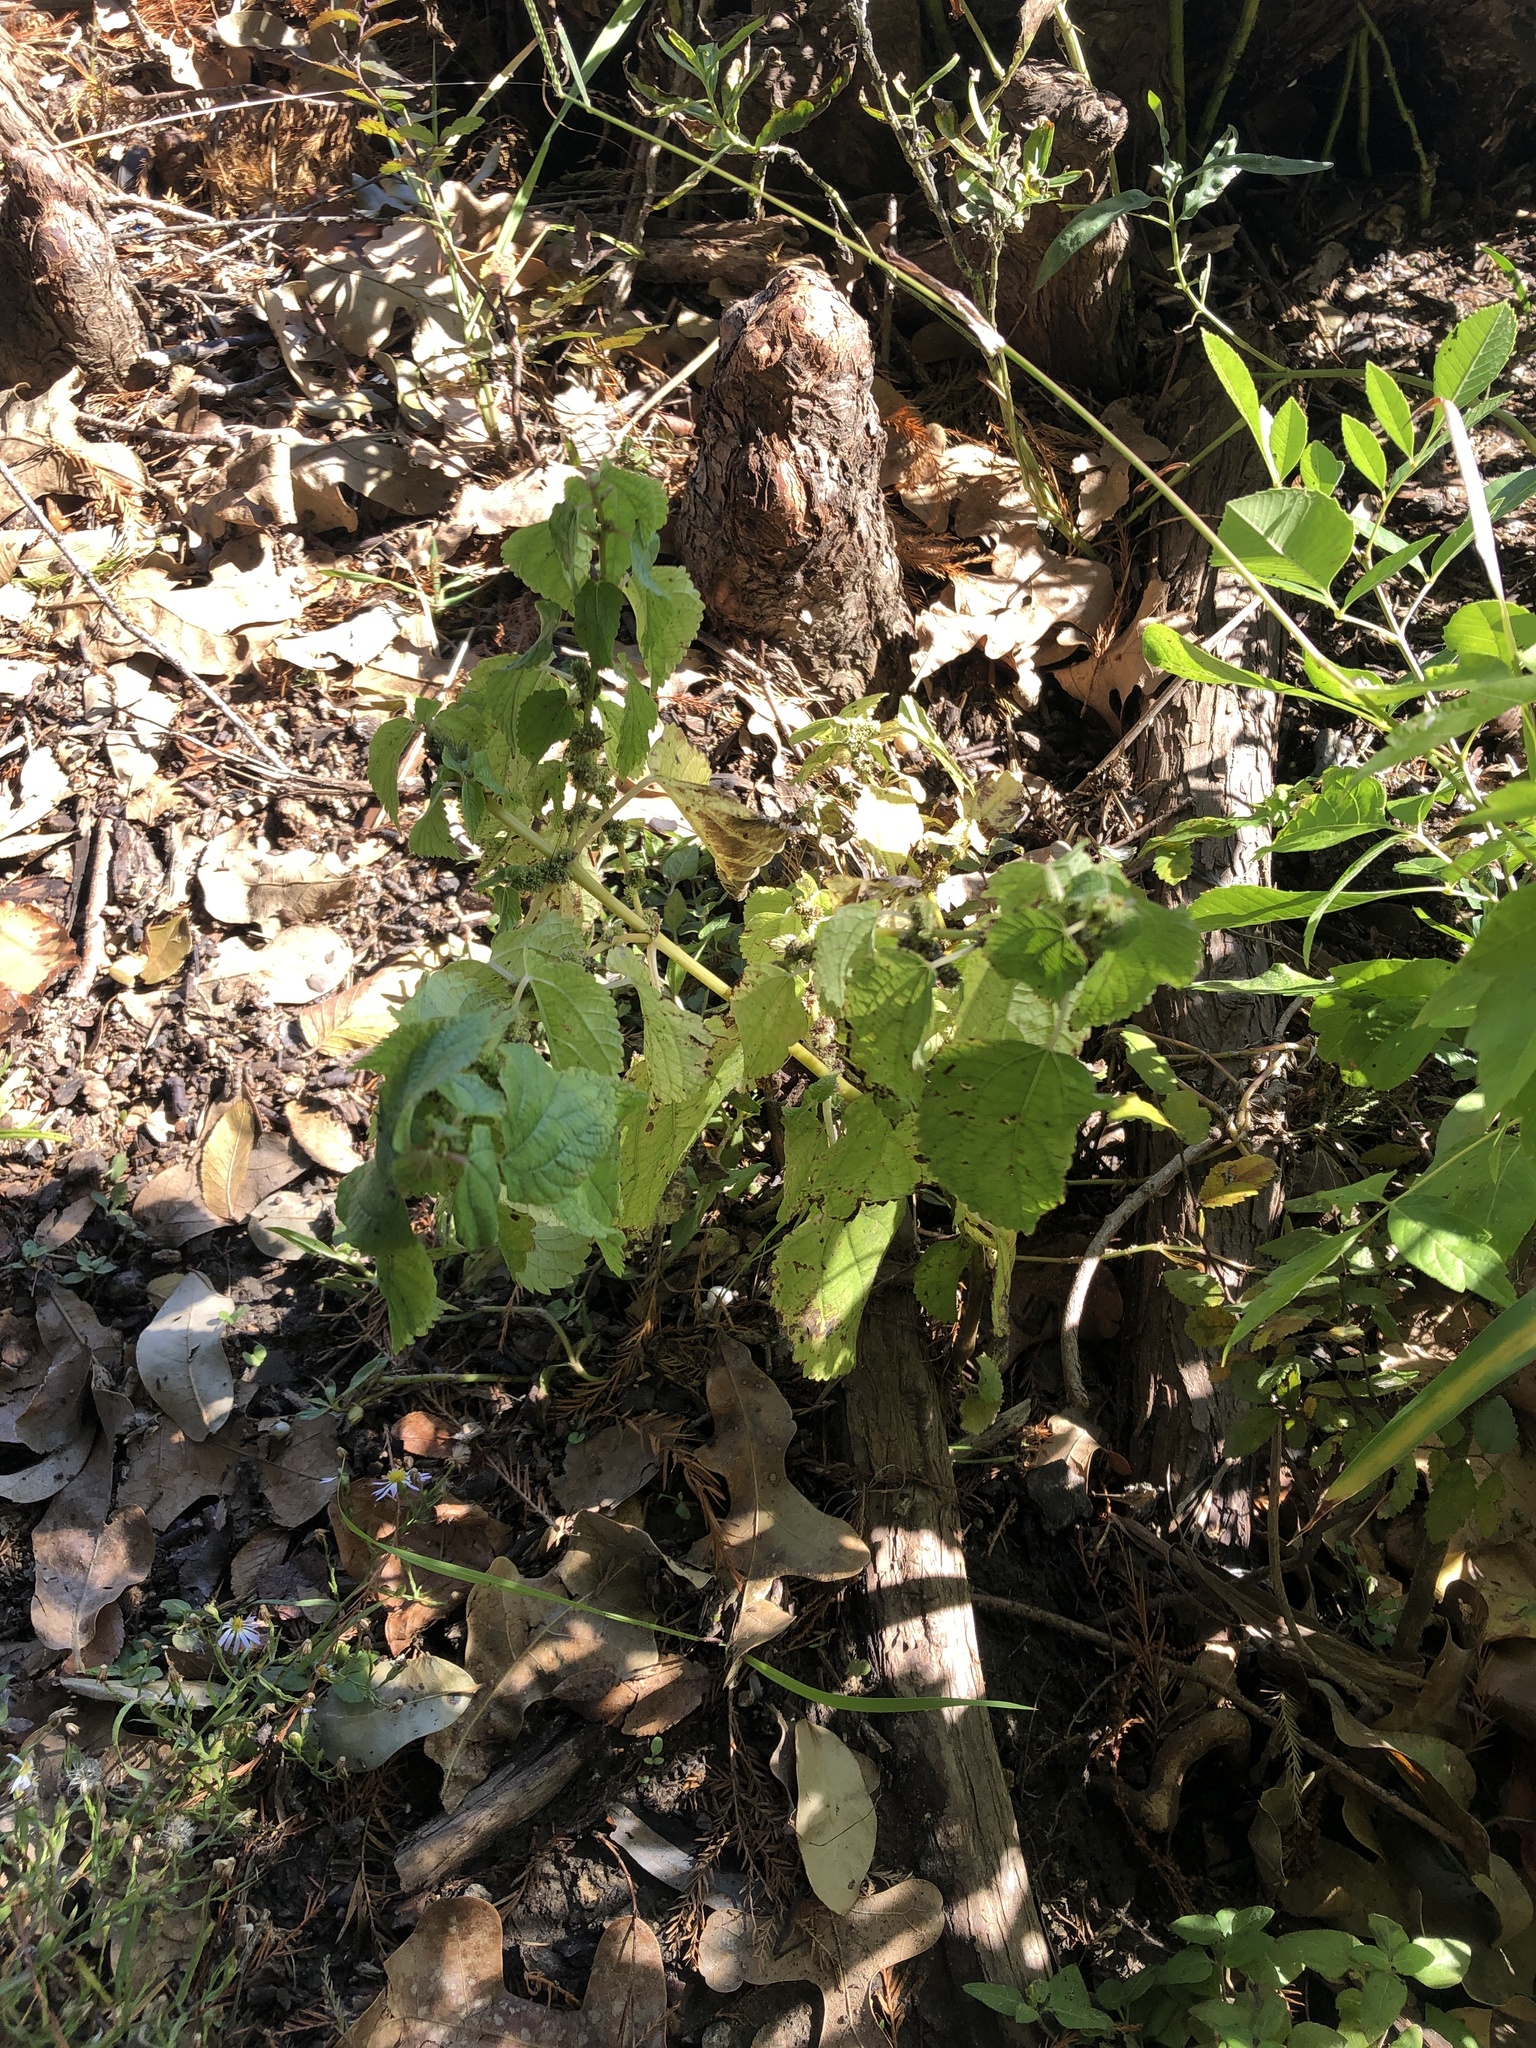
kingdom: Plantae
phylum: Tracheophyta
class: Magnoliopsida
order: Rosales
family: Urticaceae
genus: Boehmeria
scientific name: Boehmeria cylindrica
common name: Bog-hemp
